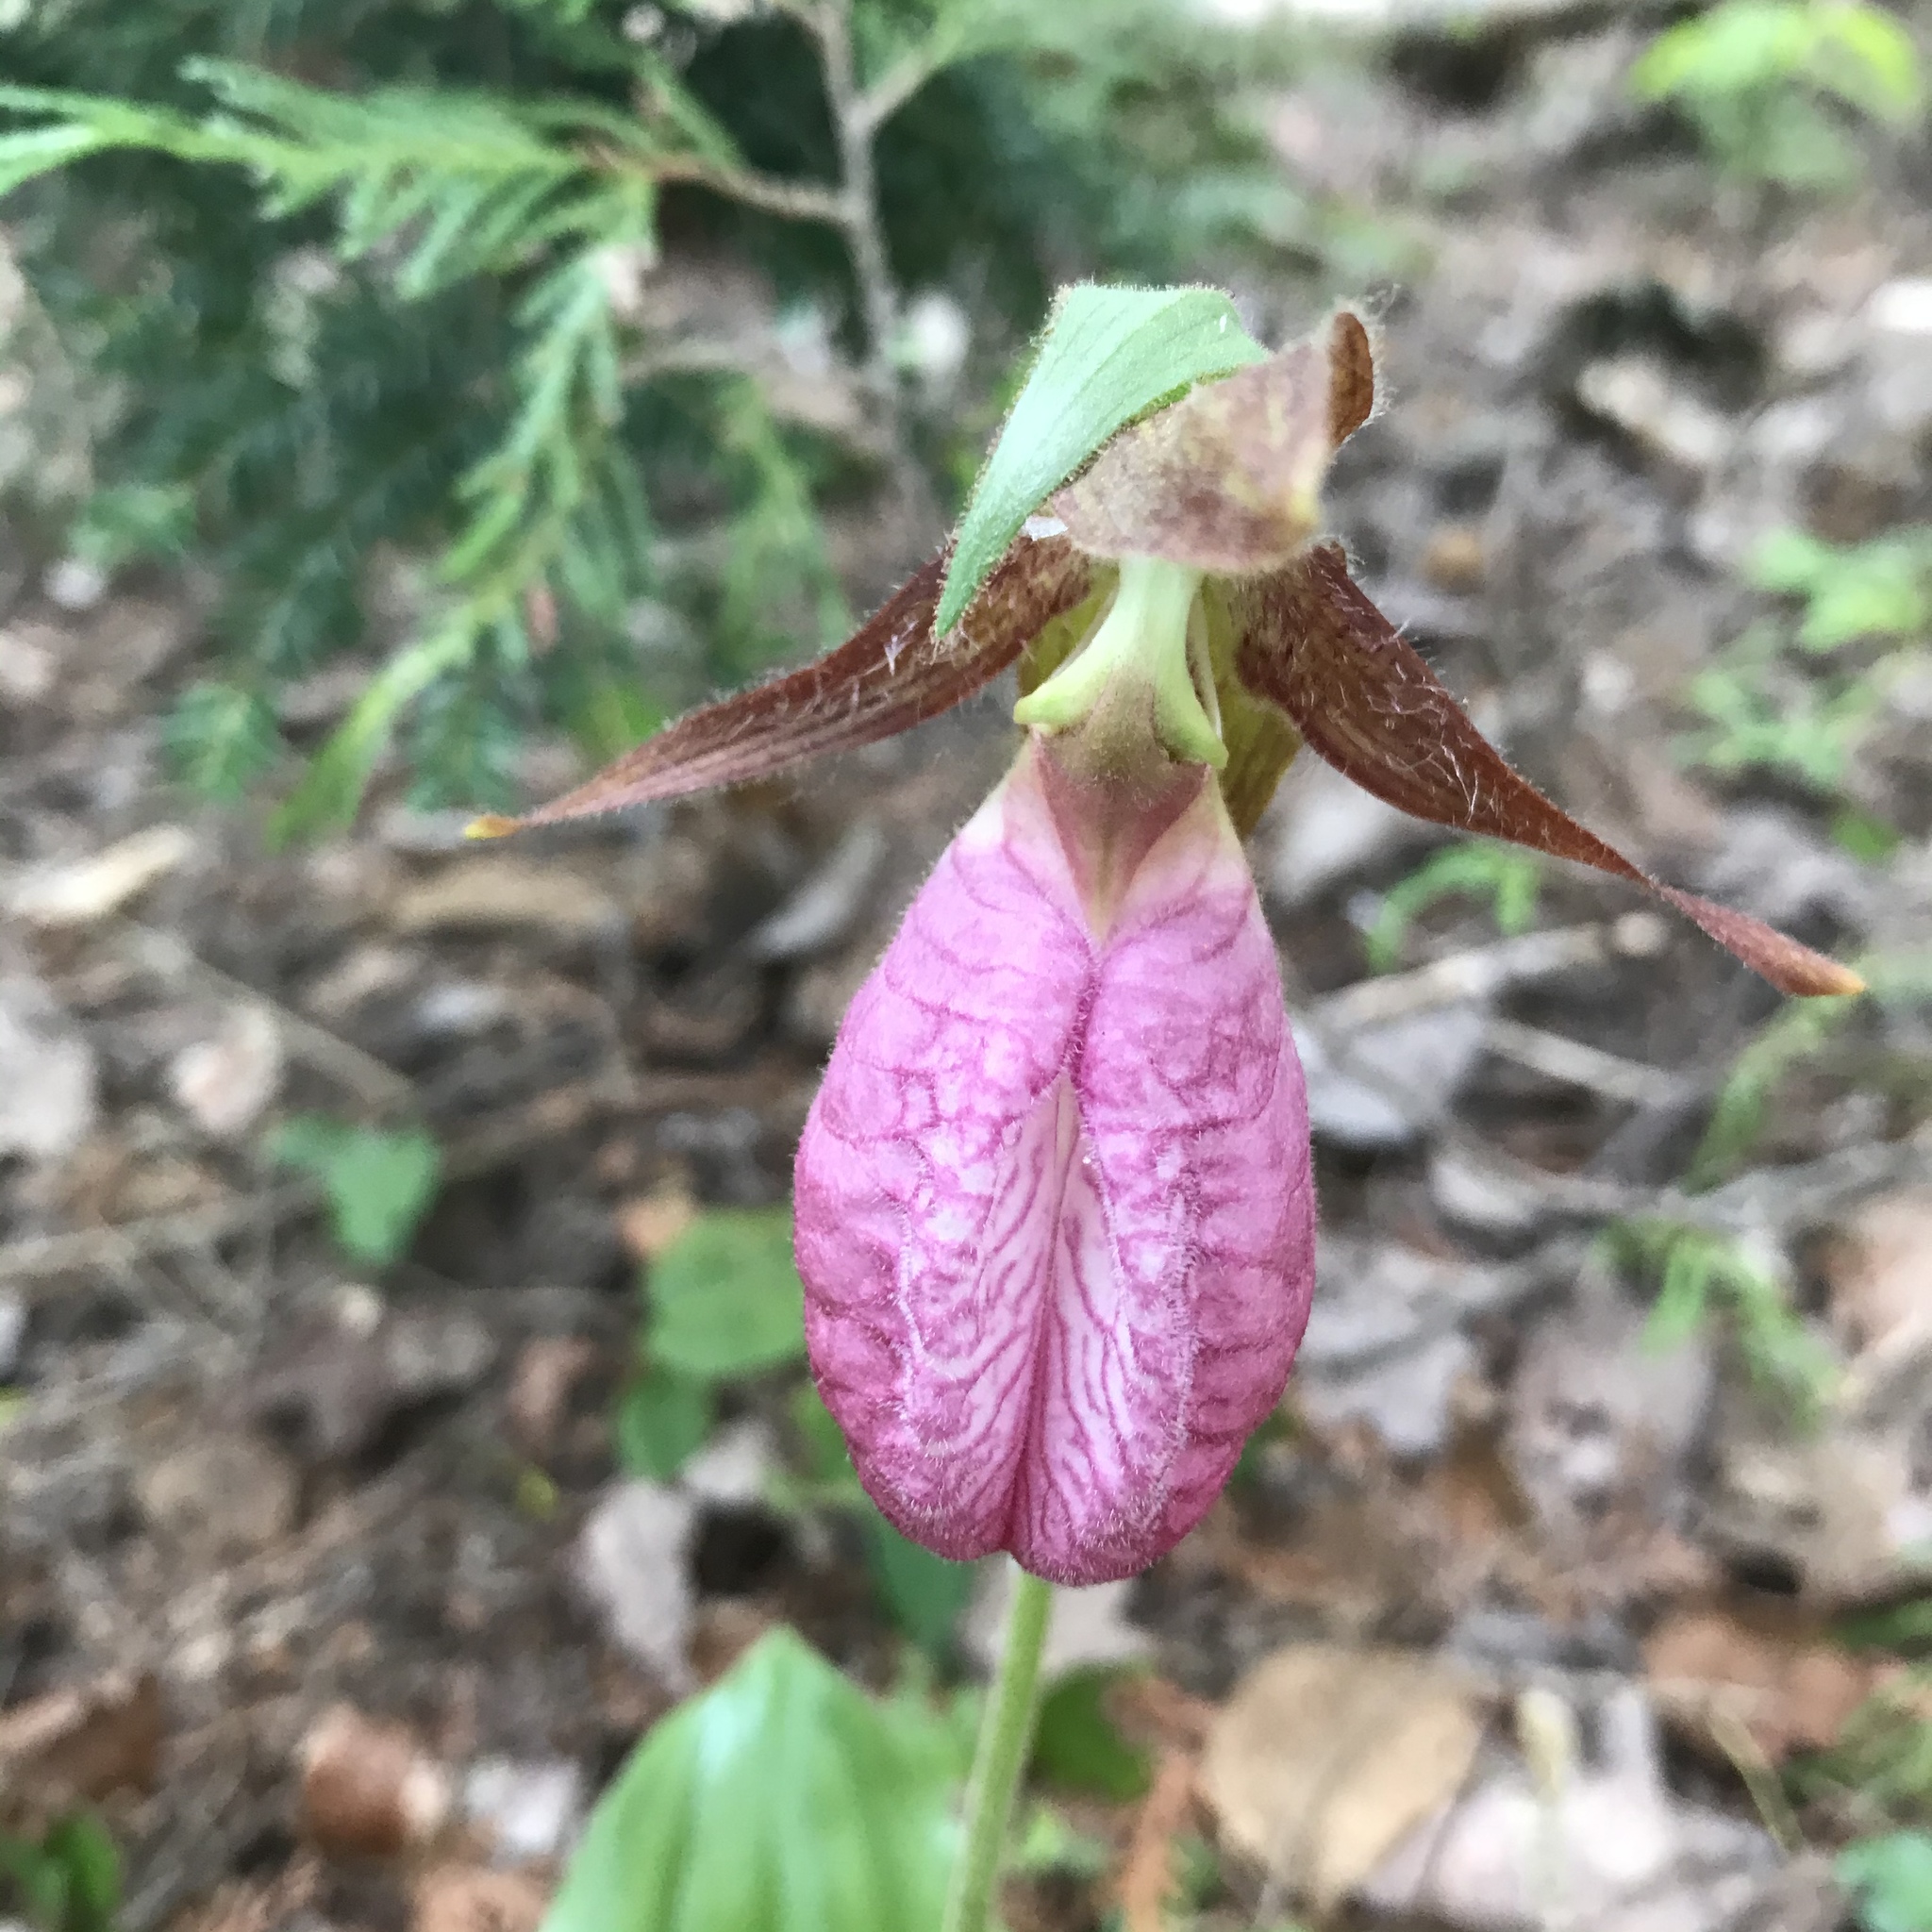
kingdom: Plantae
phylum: Tracheophyta
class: Liliopsida
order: Asparagales
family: Orchidaceae
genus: Cypripedium
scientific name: Cypripedium acaule
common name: Pink lady's-slipper
